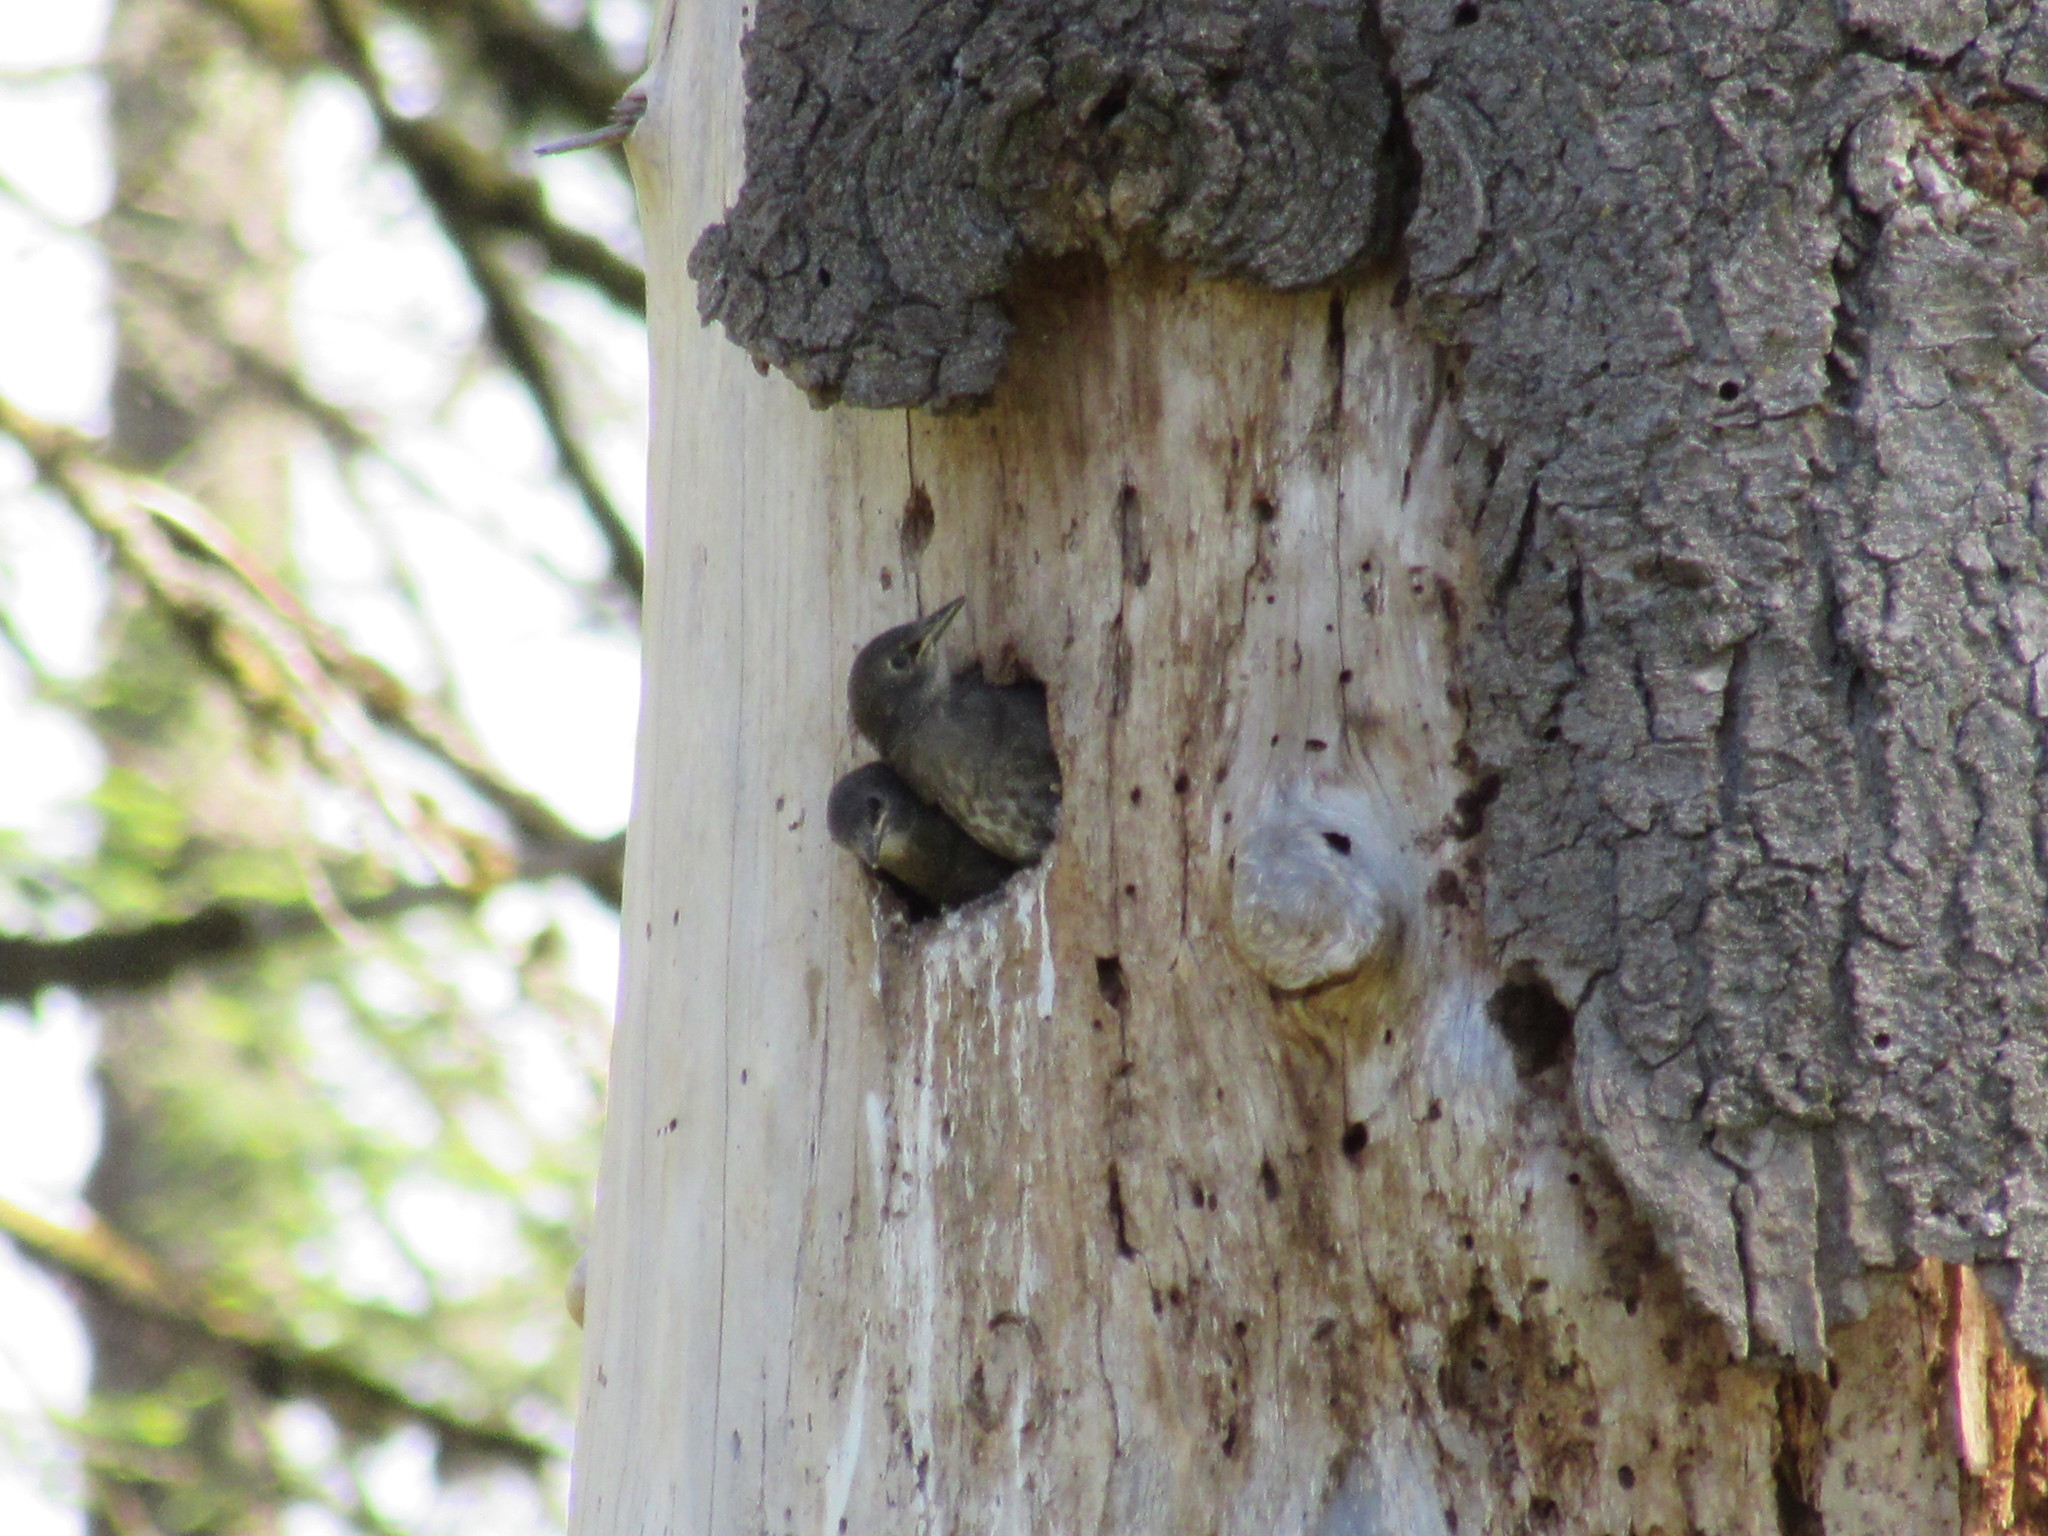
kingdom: Animalia
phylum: Chordata
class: Aves
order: Passeriformes
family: Sturnidae
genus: Sturnus
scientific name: Sturnus vulgaris
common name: Common starling
